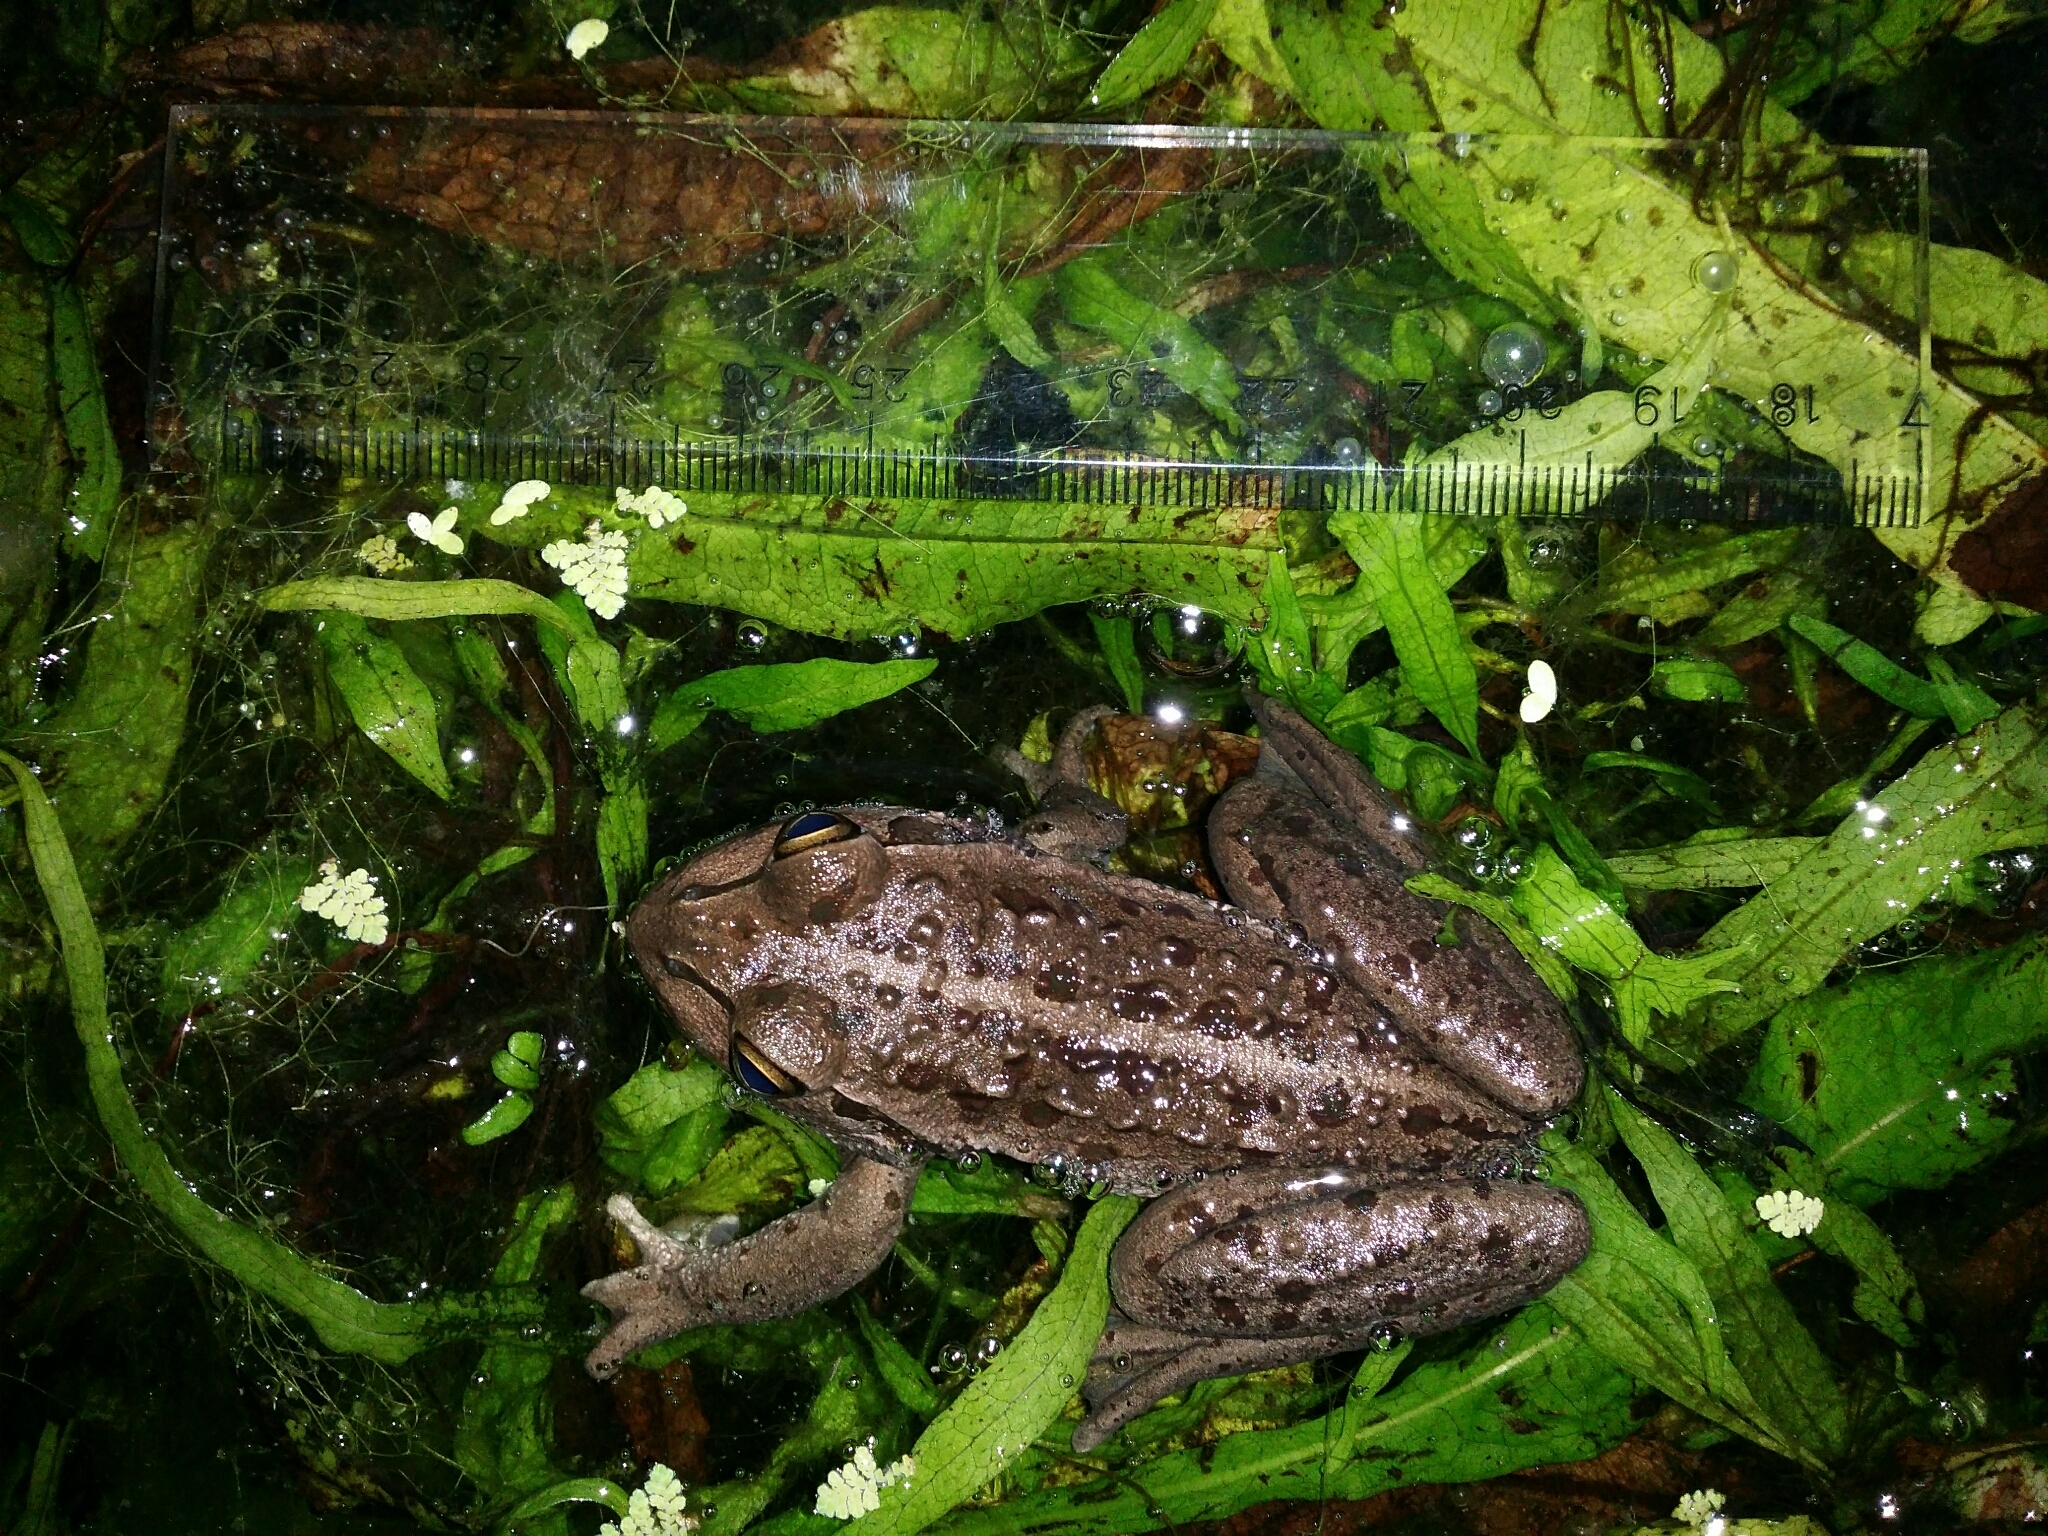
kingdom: Animalia
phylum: Chordata
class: Amphibia
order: Anura
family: Pelodryadidae
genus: Ranoidea
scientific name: Ranoidea moorei
